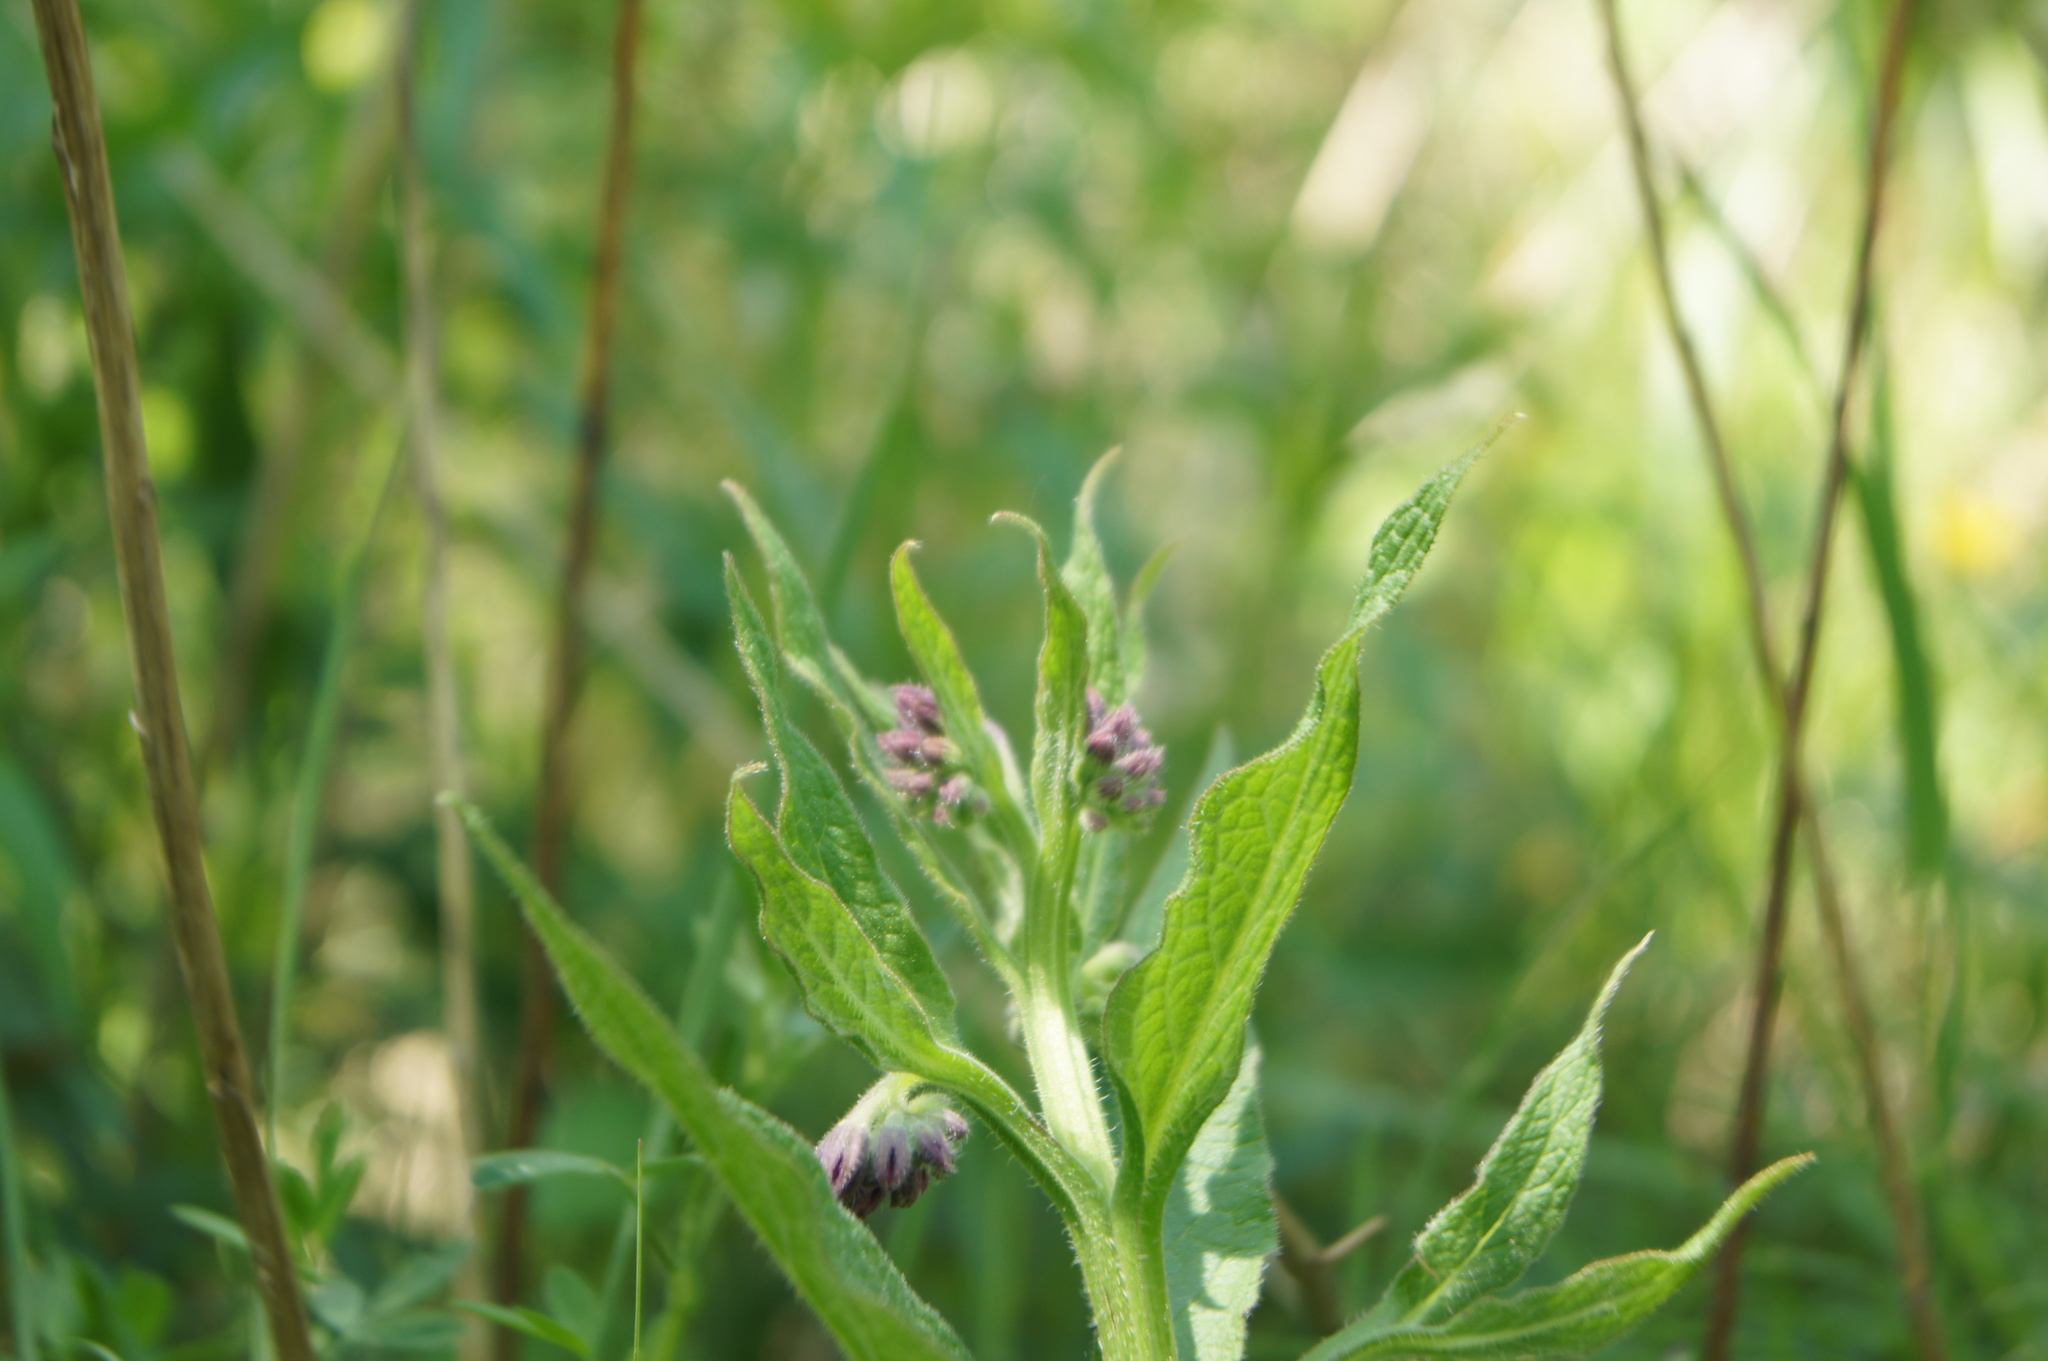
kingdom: Plantae
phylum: Tracheophyta
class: Magnoliopsida
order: Boraginales
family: Boraginaceae
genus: Symphytum
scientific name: Symphytum officinale
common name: Common comfrey
